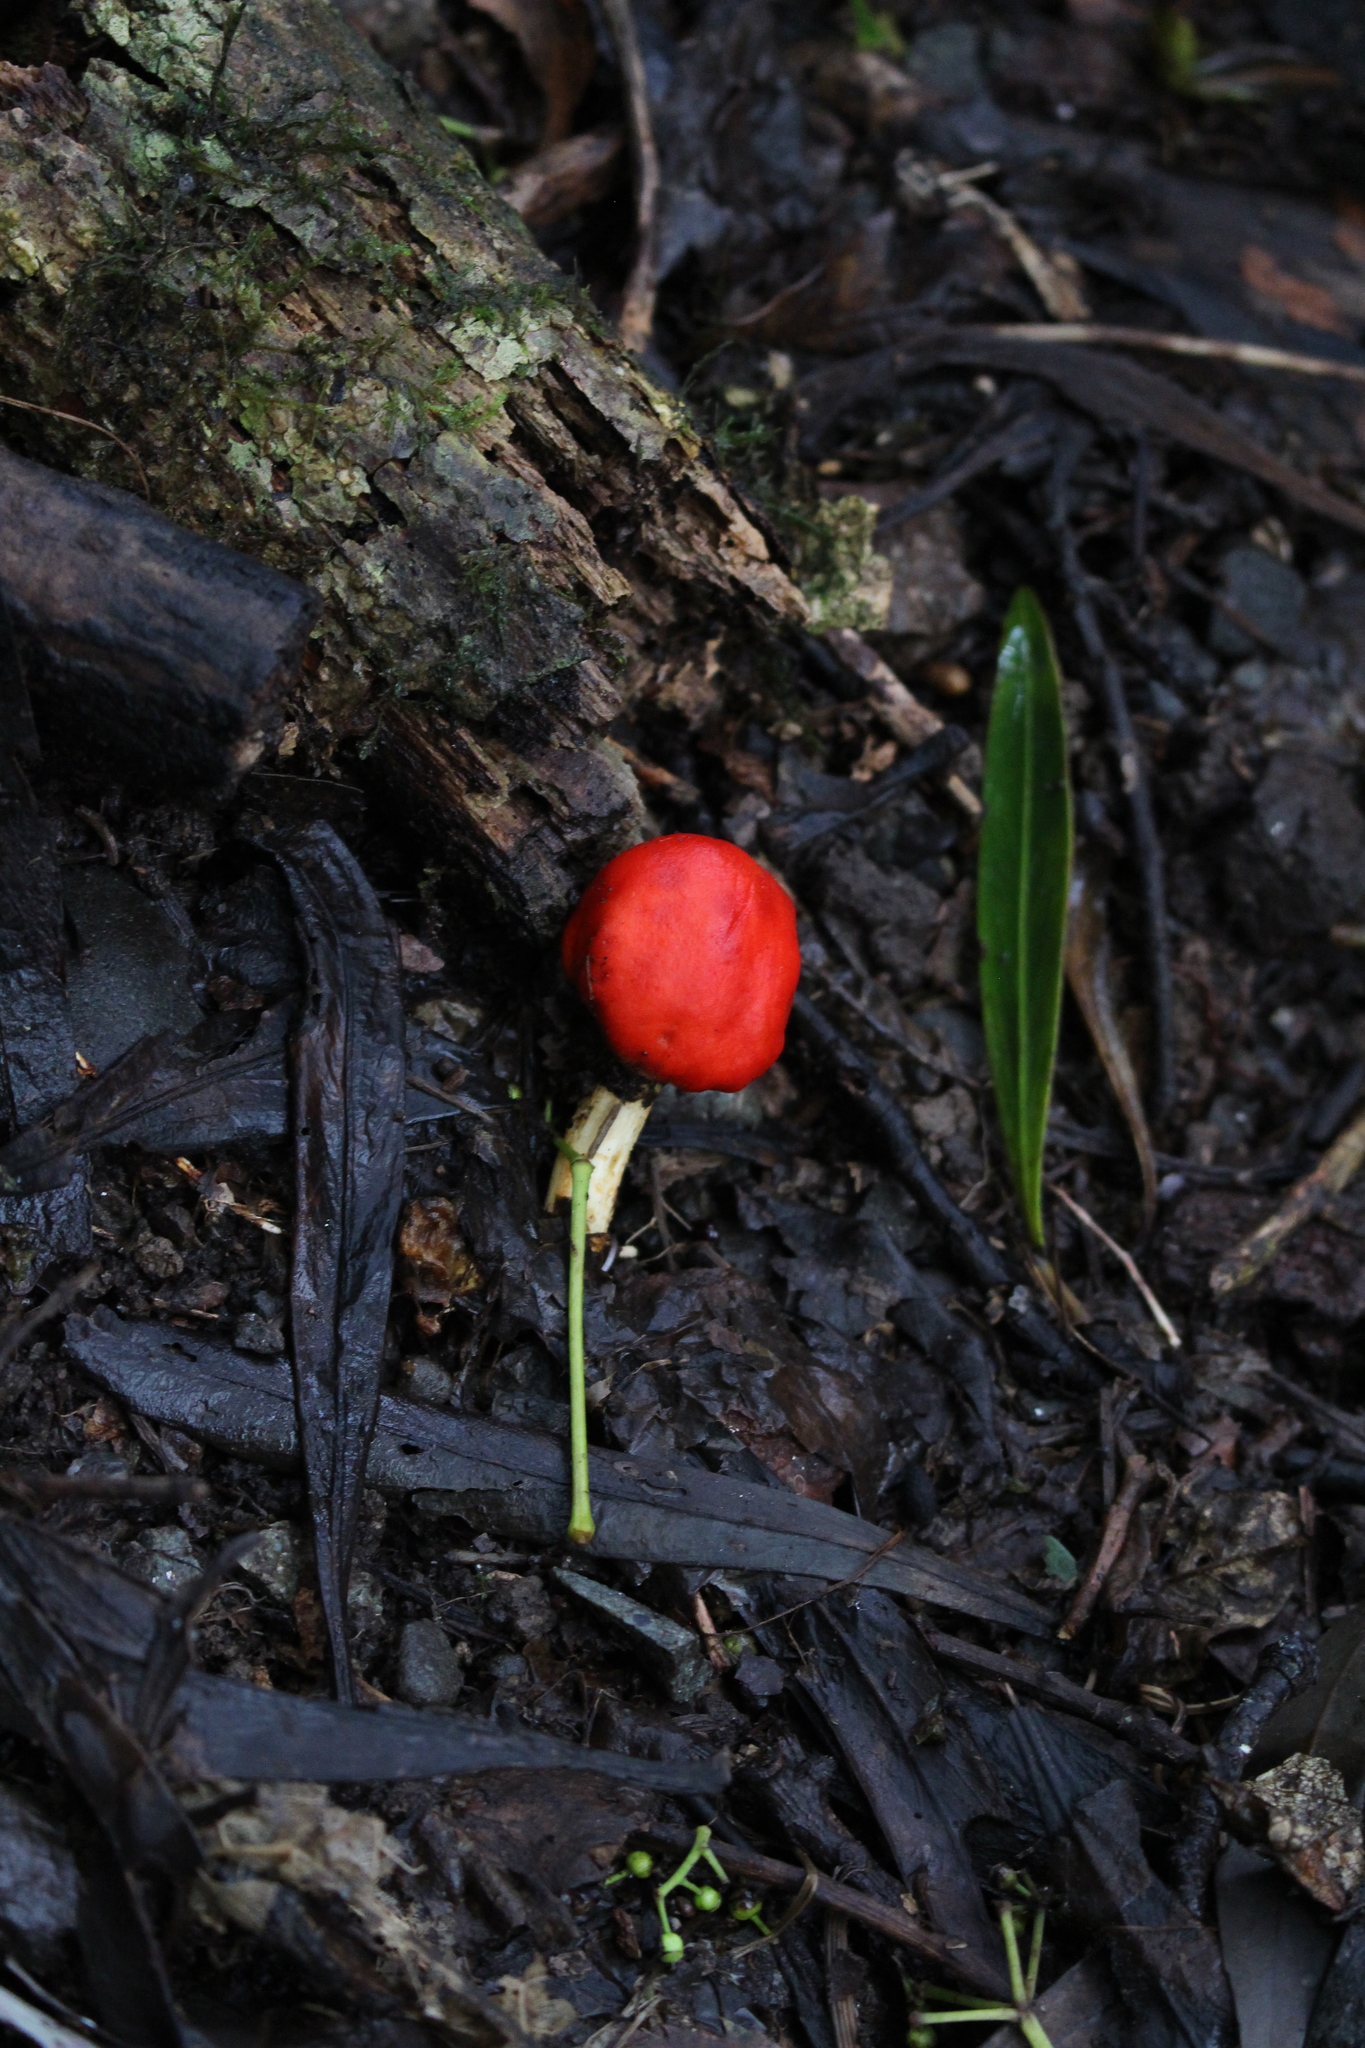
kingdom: Fungi
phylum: Basidiomycota
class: Agaricomycetes
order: Agaricales
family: Strophariaceae
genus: Leratiomyces
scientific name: Leratiomyces erythrocephalus
